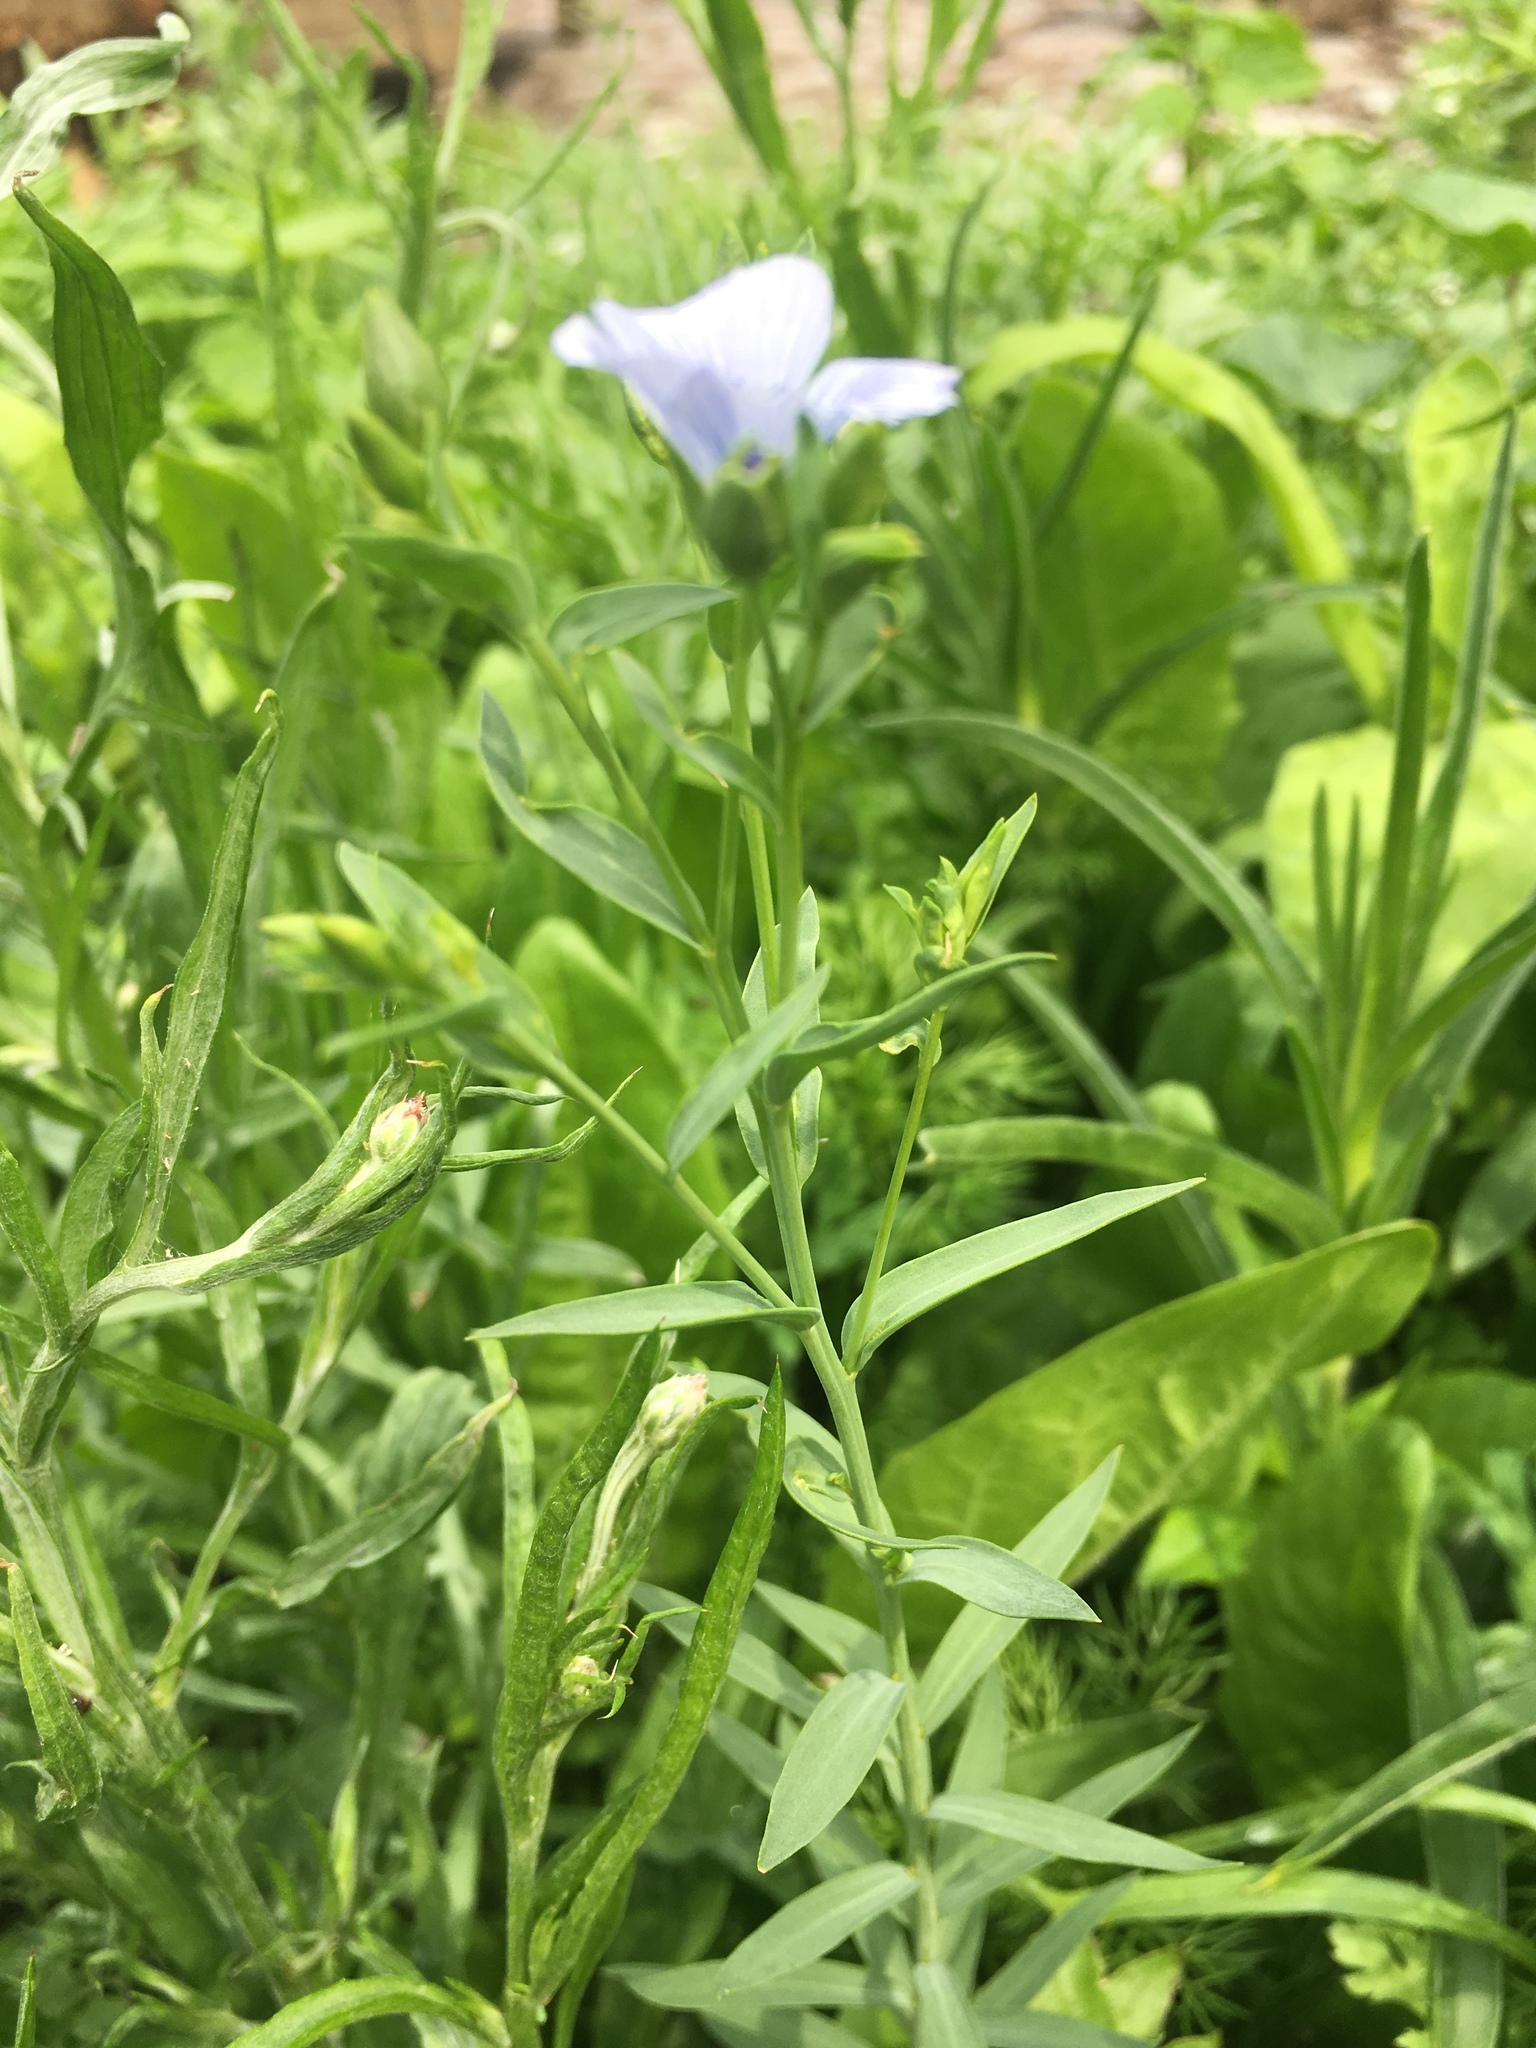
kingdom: Plantae
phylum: Tracheophyta
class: Magnoliopsida
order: Malpighiales
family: Linaceae
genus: Linum
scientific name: Linum usitatissimum
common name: Flax
